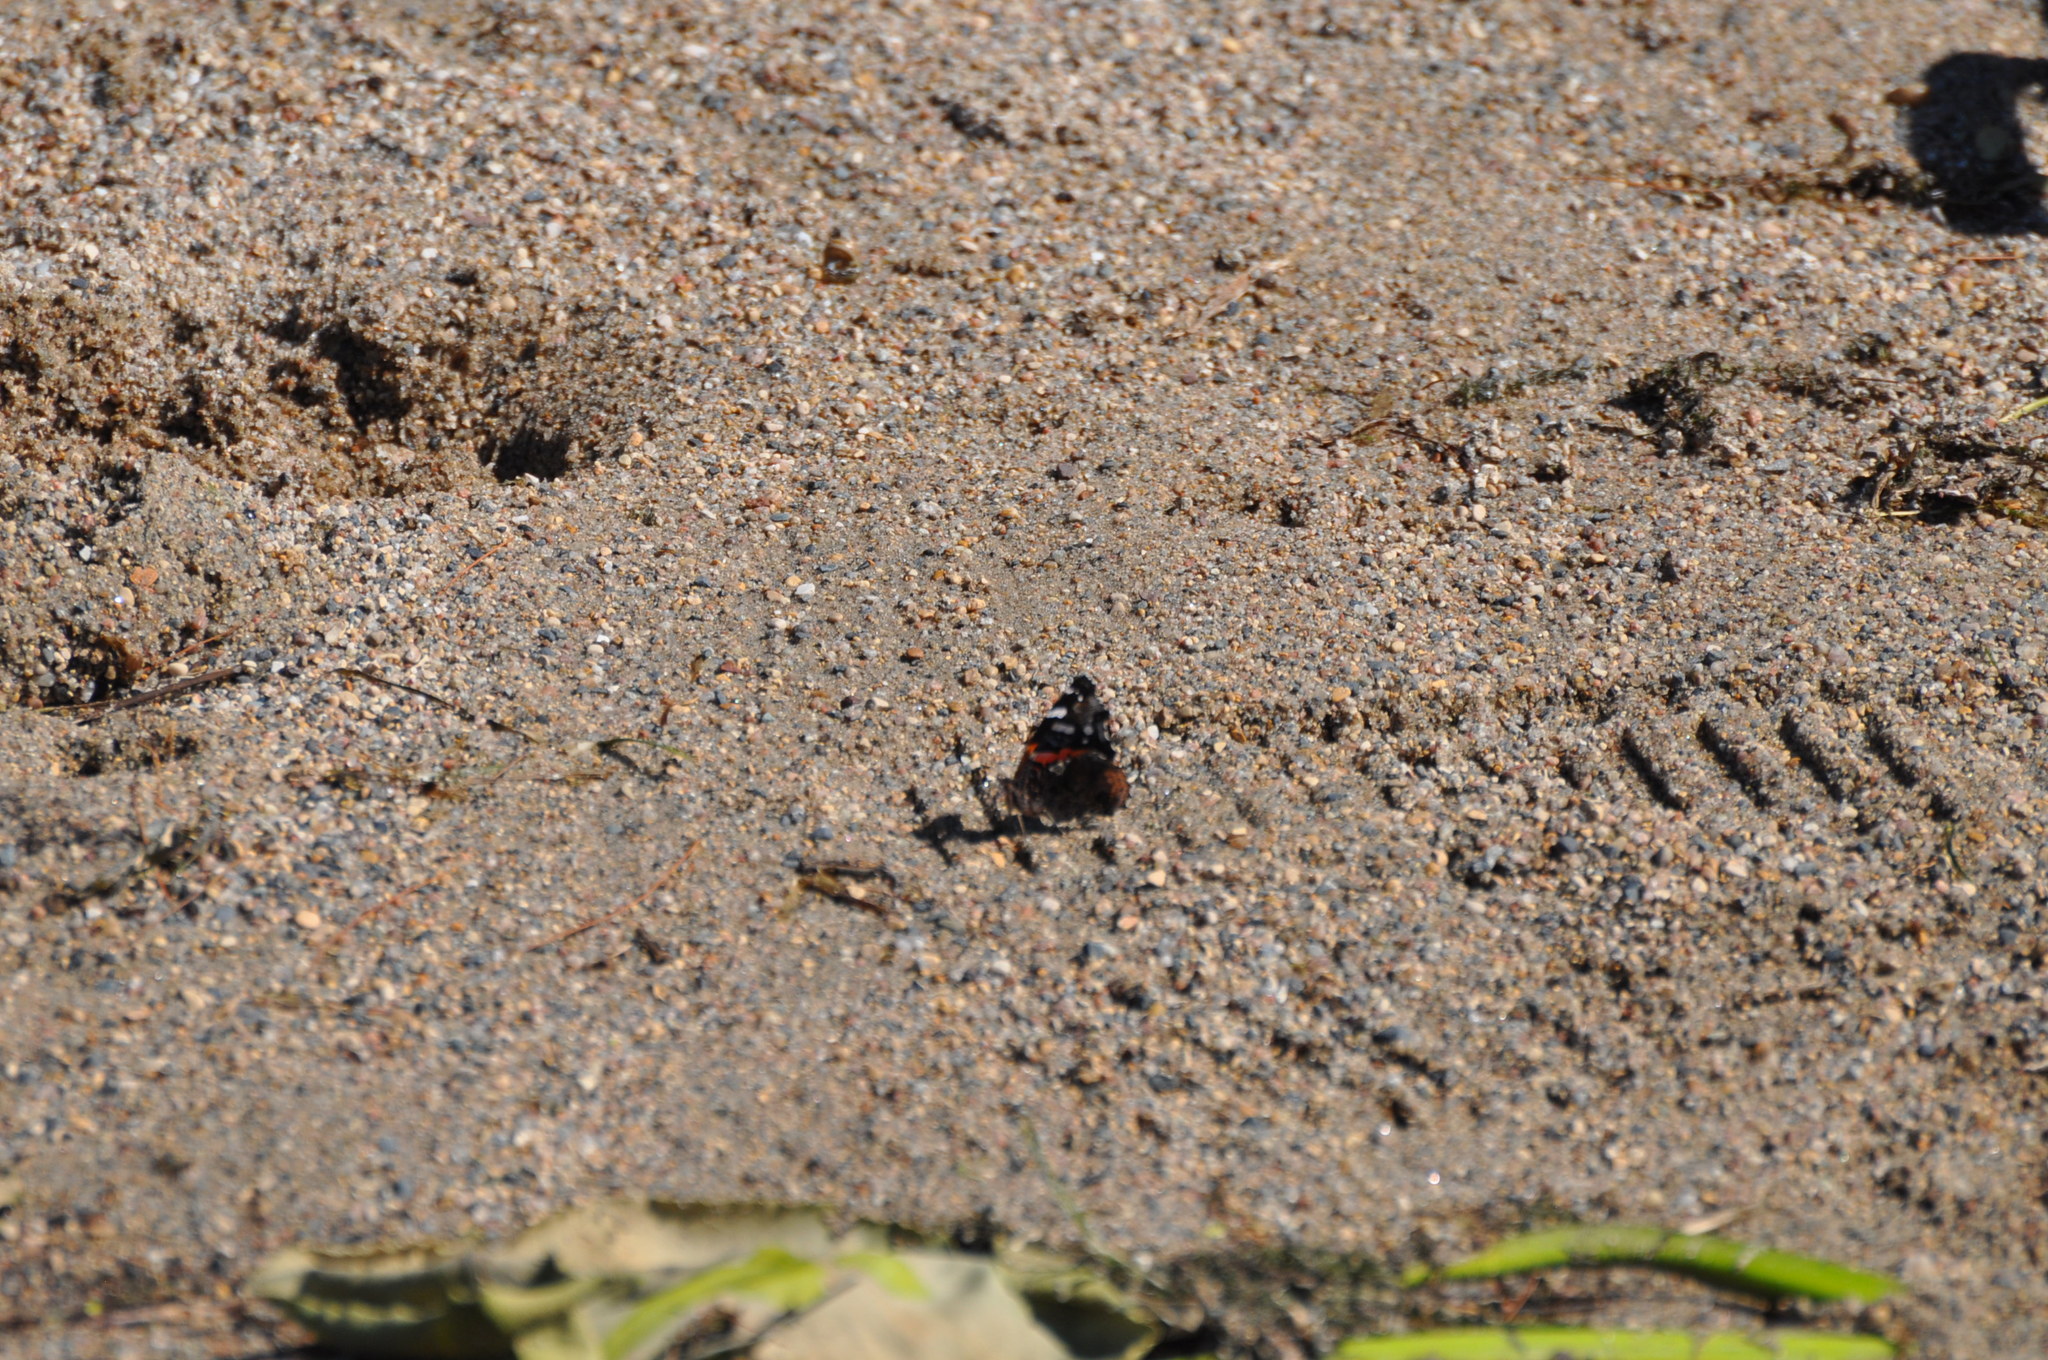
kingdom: Animalia
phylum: Arthropoda
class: Insecta
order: Lepidoptera
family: Nymphalidae
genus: Vanessa
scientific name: Vanessa atalanta
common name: Red admiral
